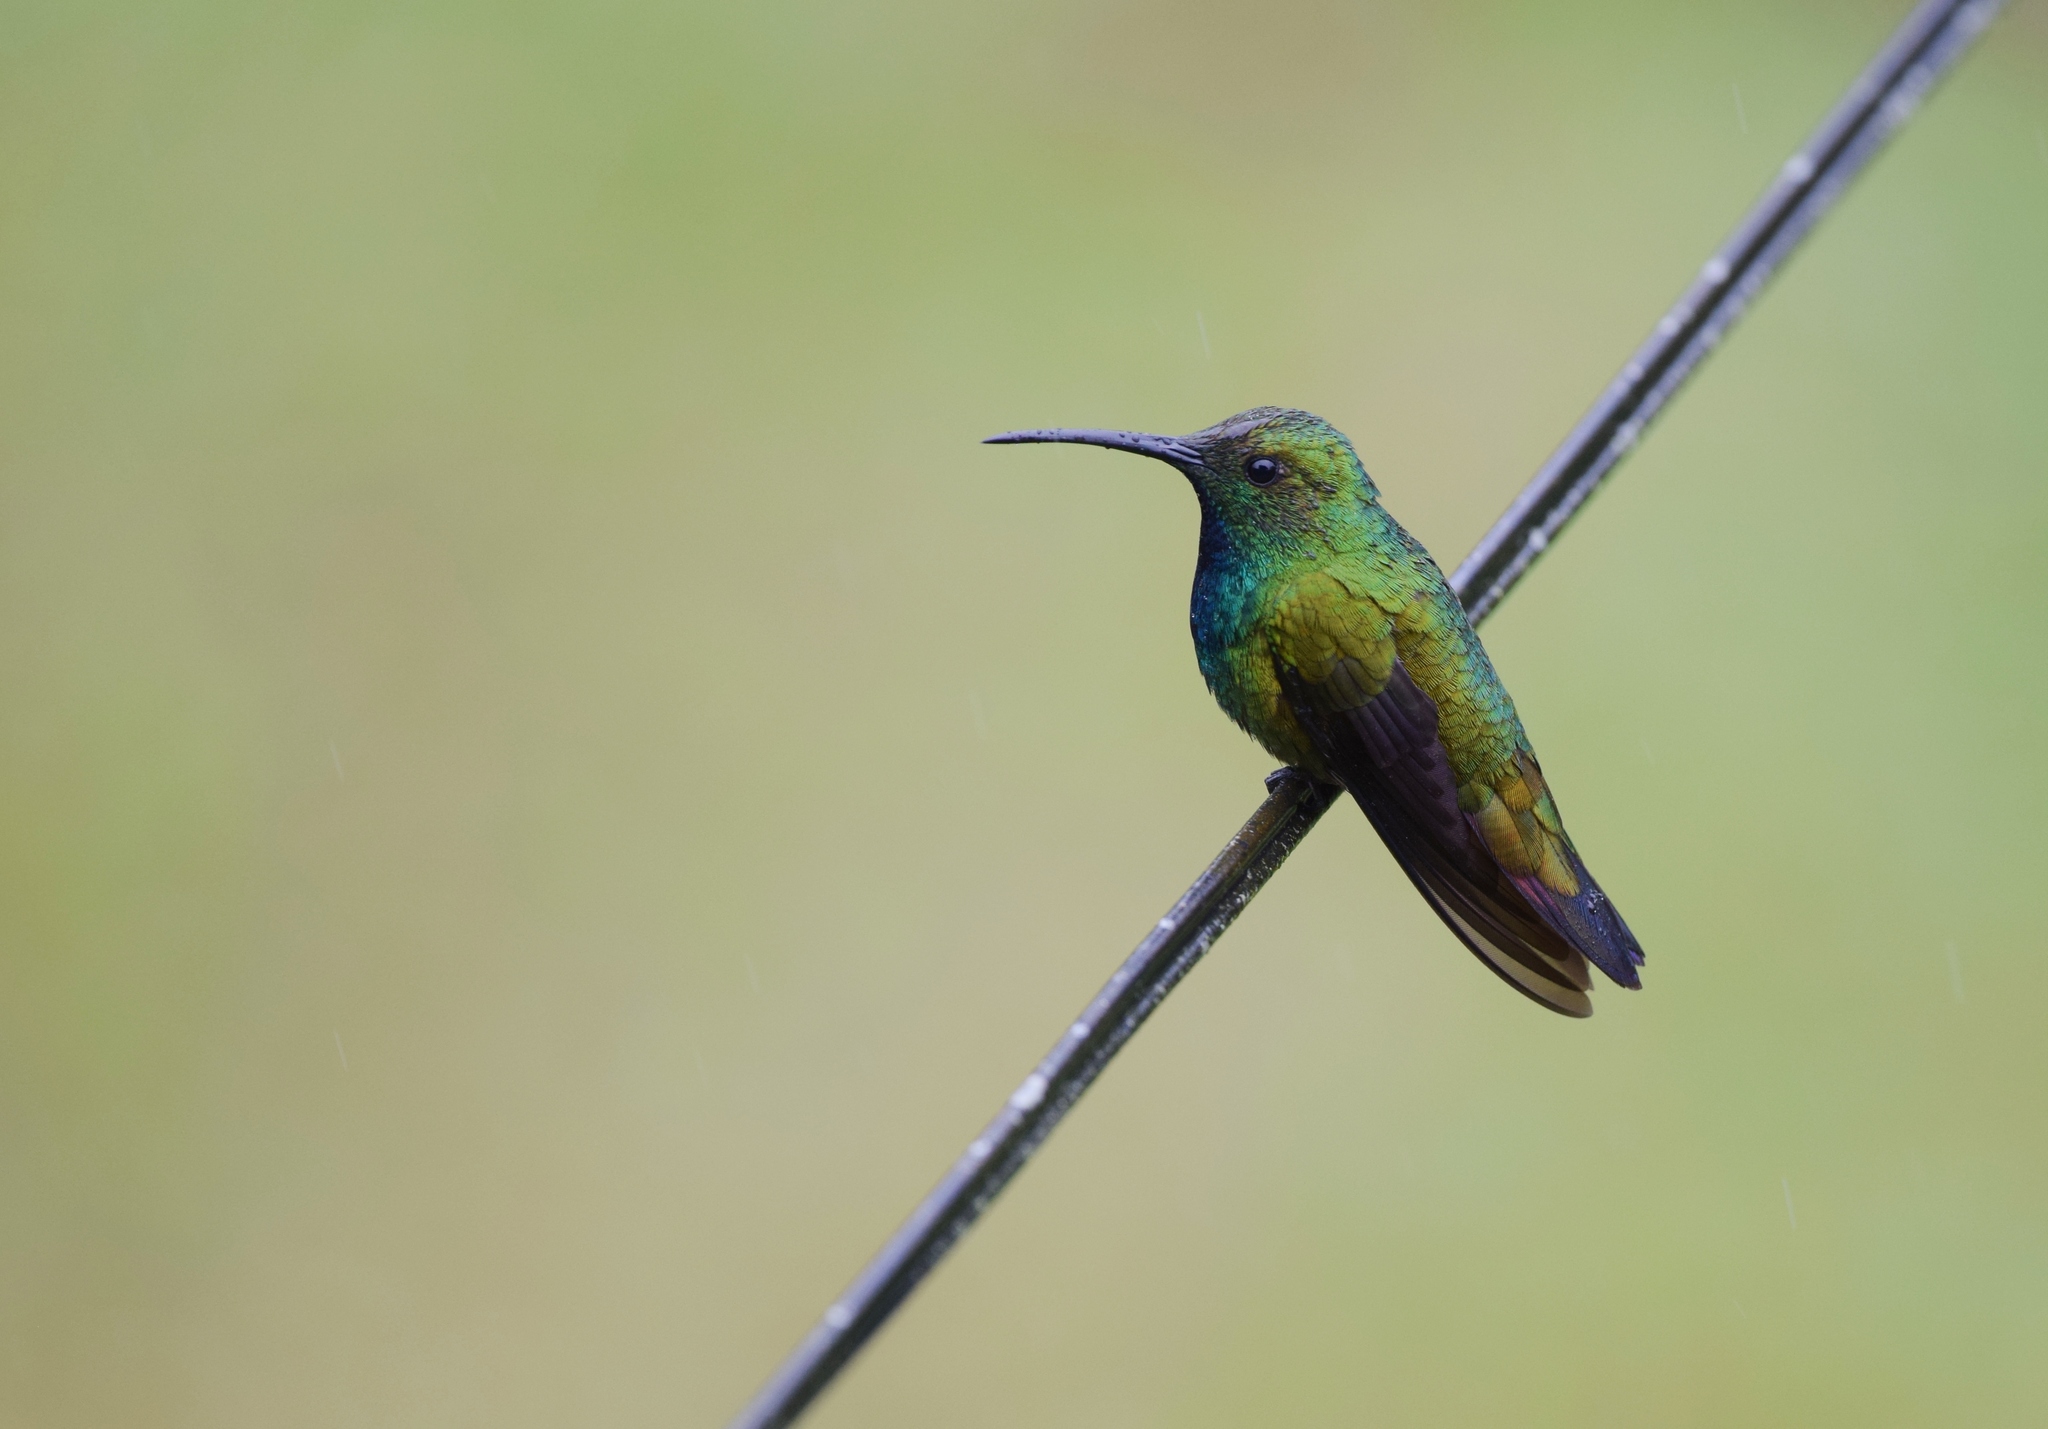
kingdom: Animalia
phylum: Chordata
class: Aves
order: Apodiformes
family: Trochilidae
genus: Anthracothorax
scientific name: Anthracothorax prevostii
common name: Green-breasted mango
